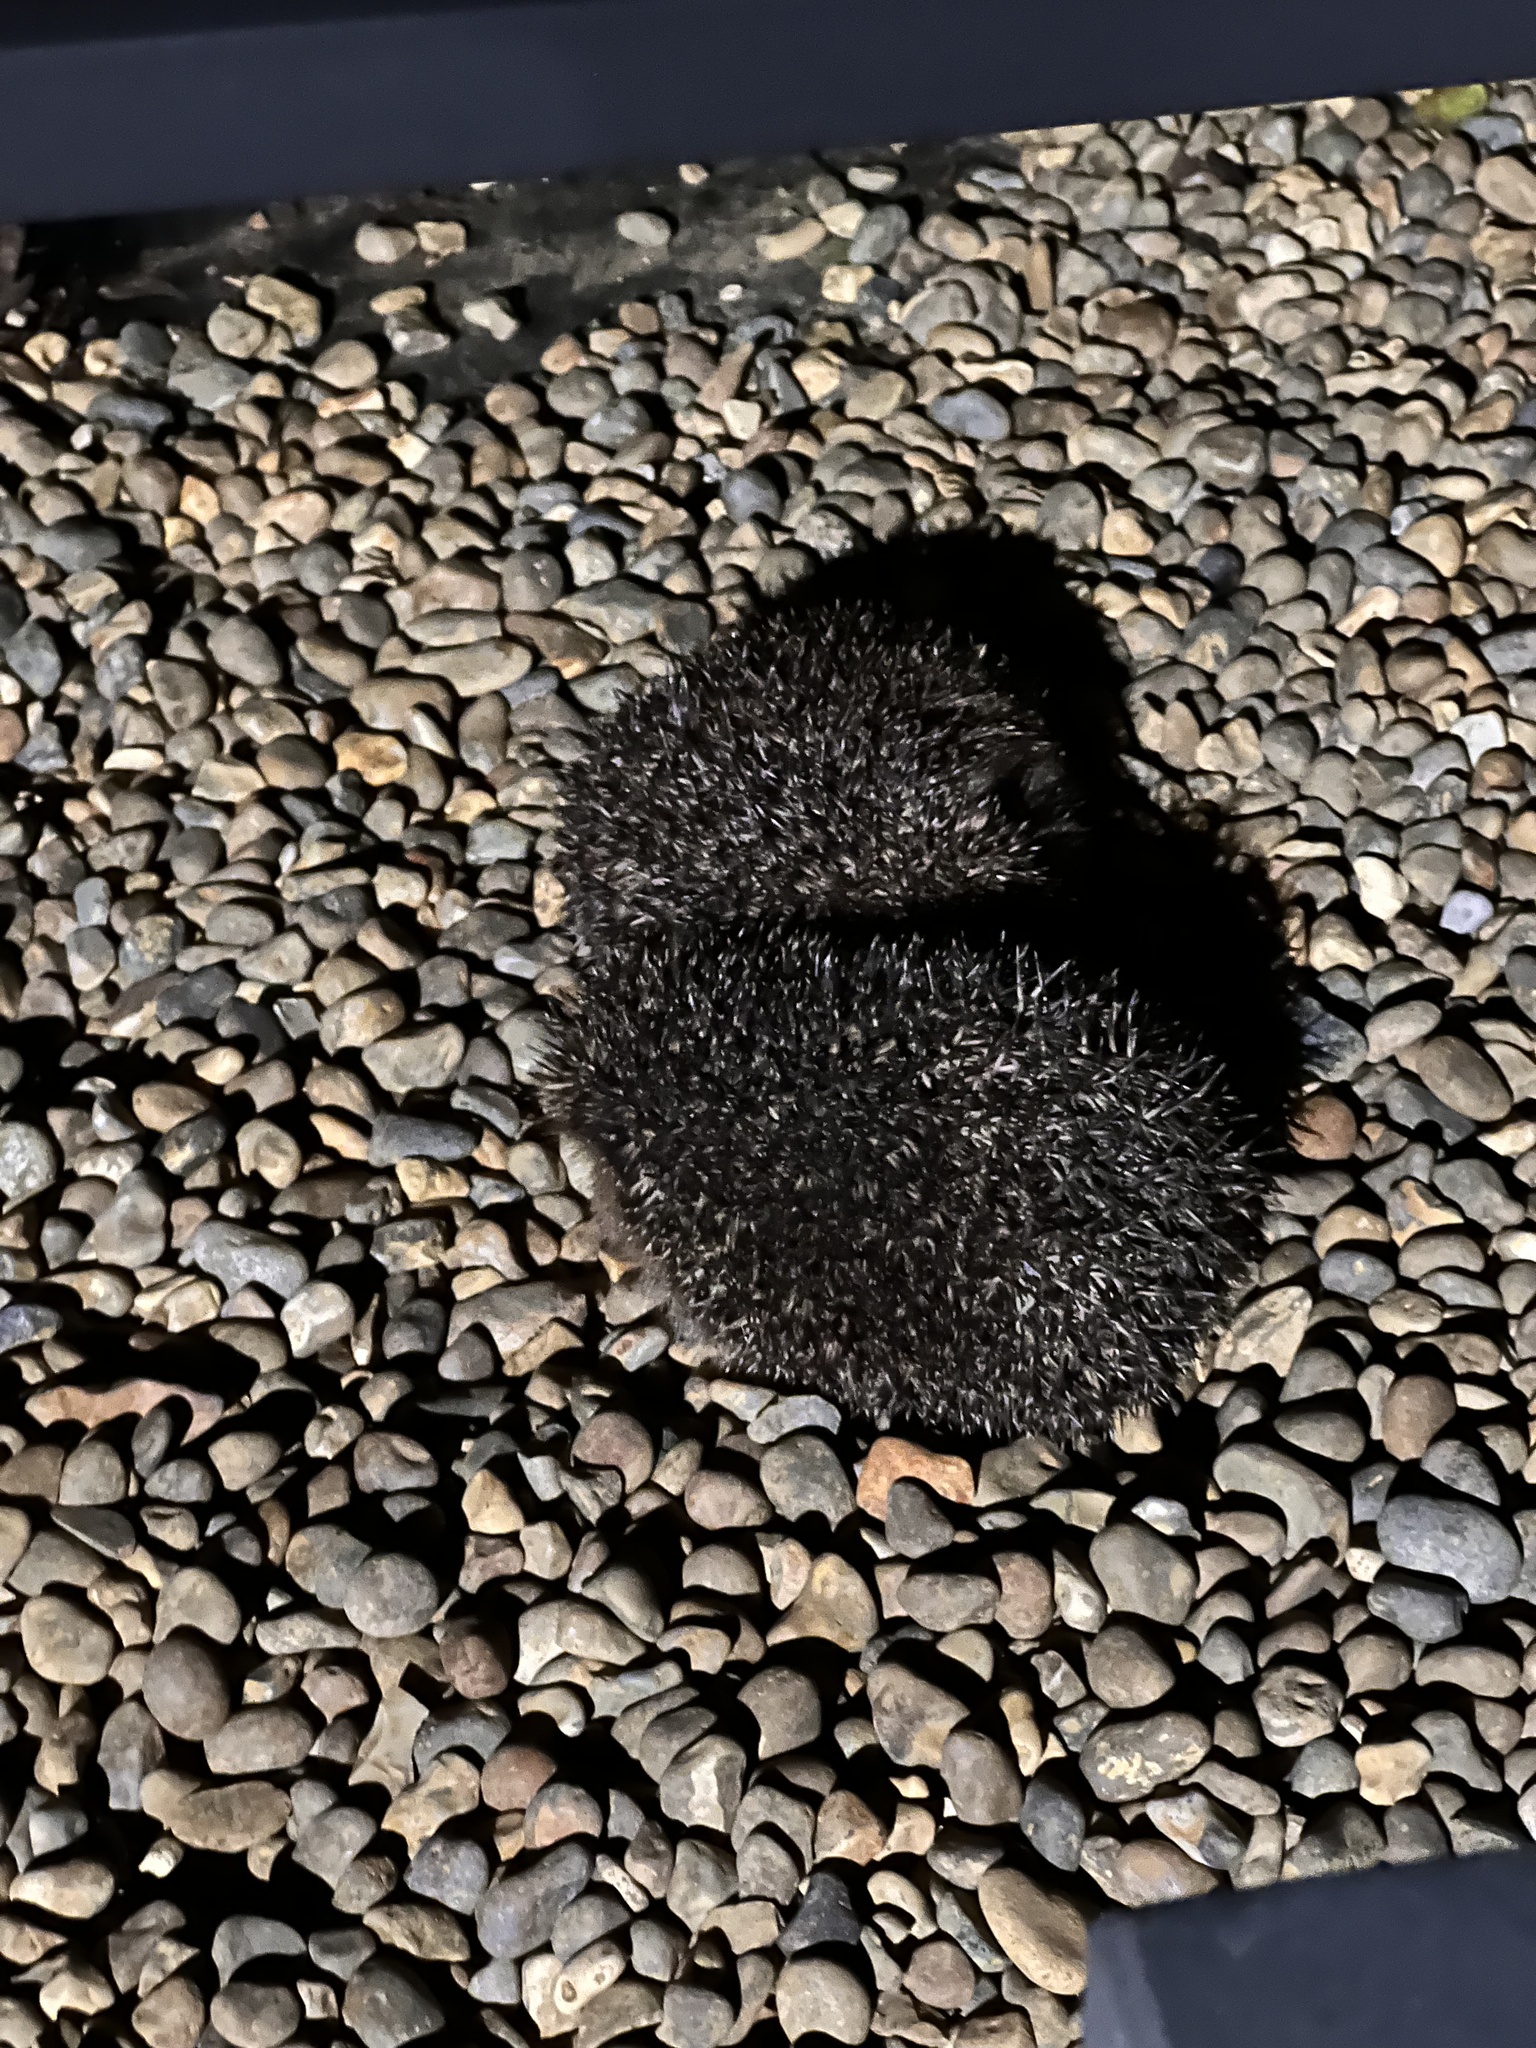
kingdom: Animalia
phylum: Chordata
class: Mammalia
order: Erinaceomorpha
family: Erinaceidae
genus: Erinaceus
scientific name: Erinaceus europaeus
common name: West european hedgehog
